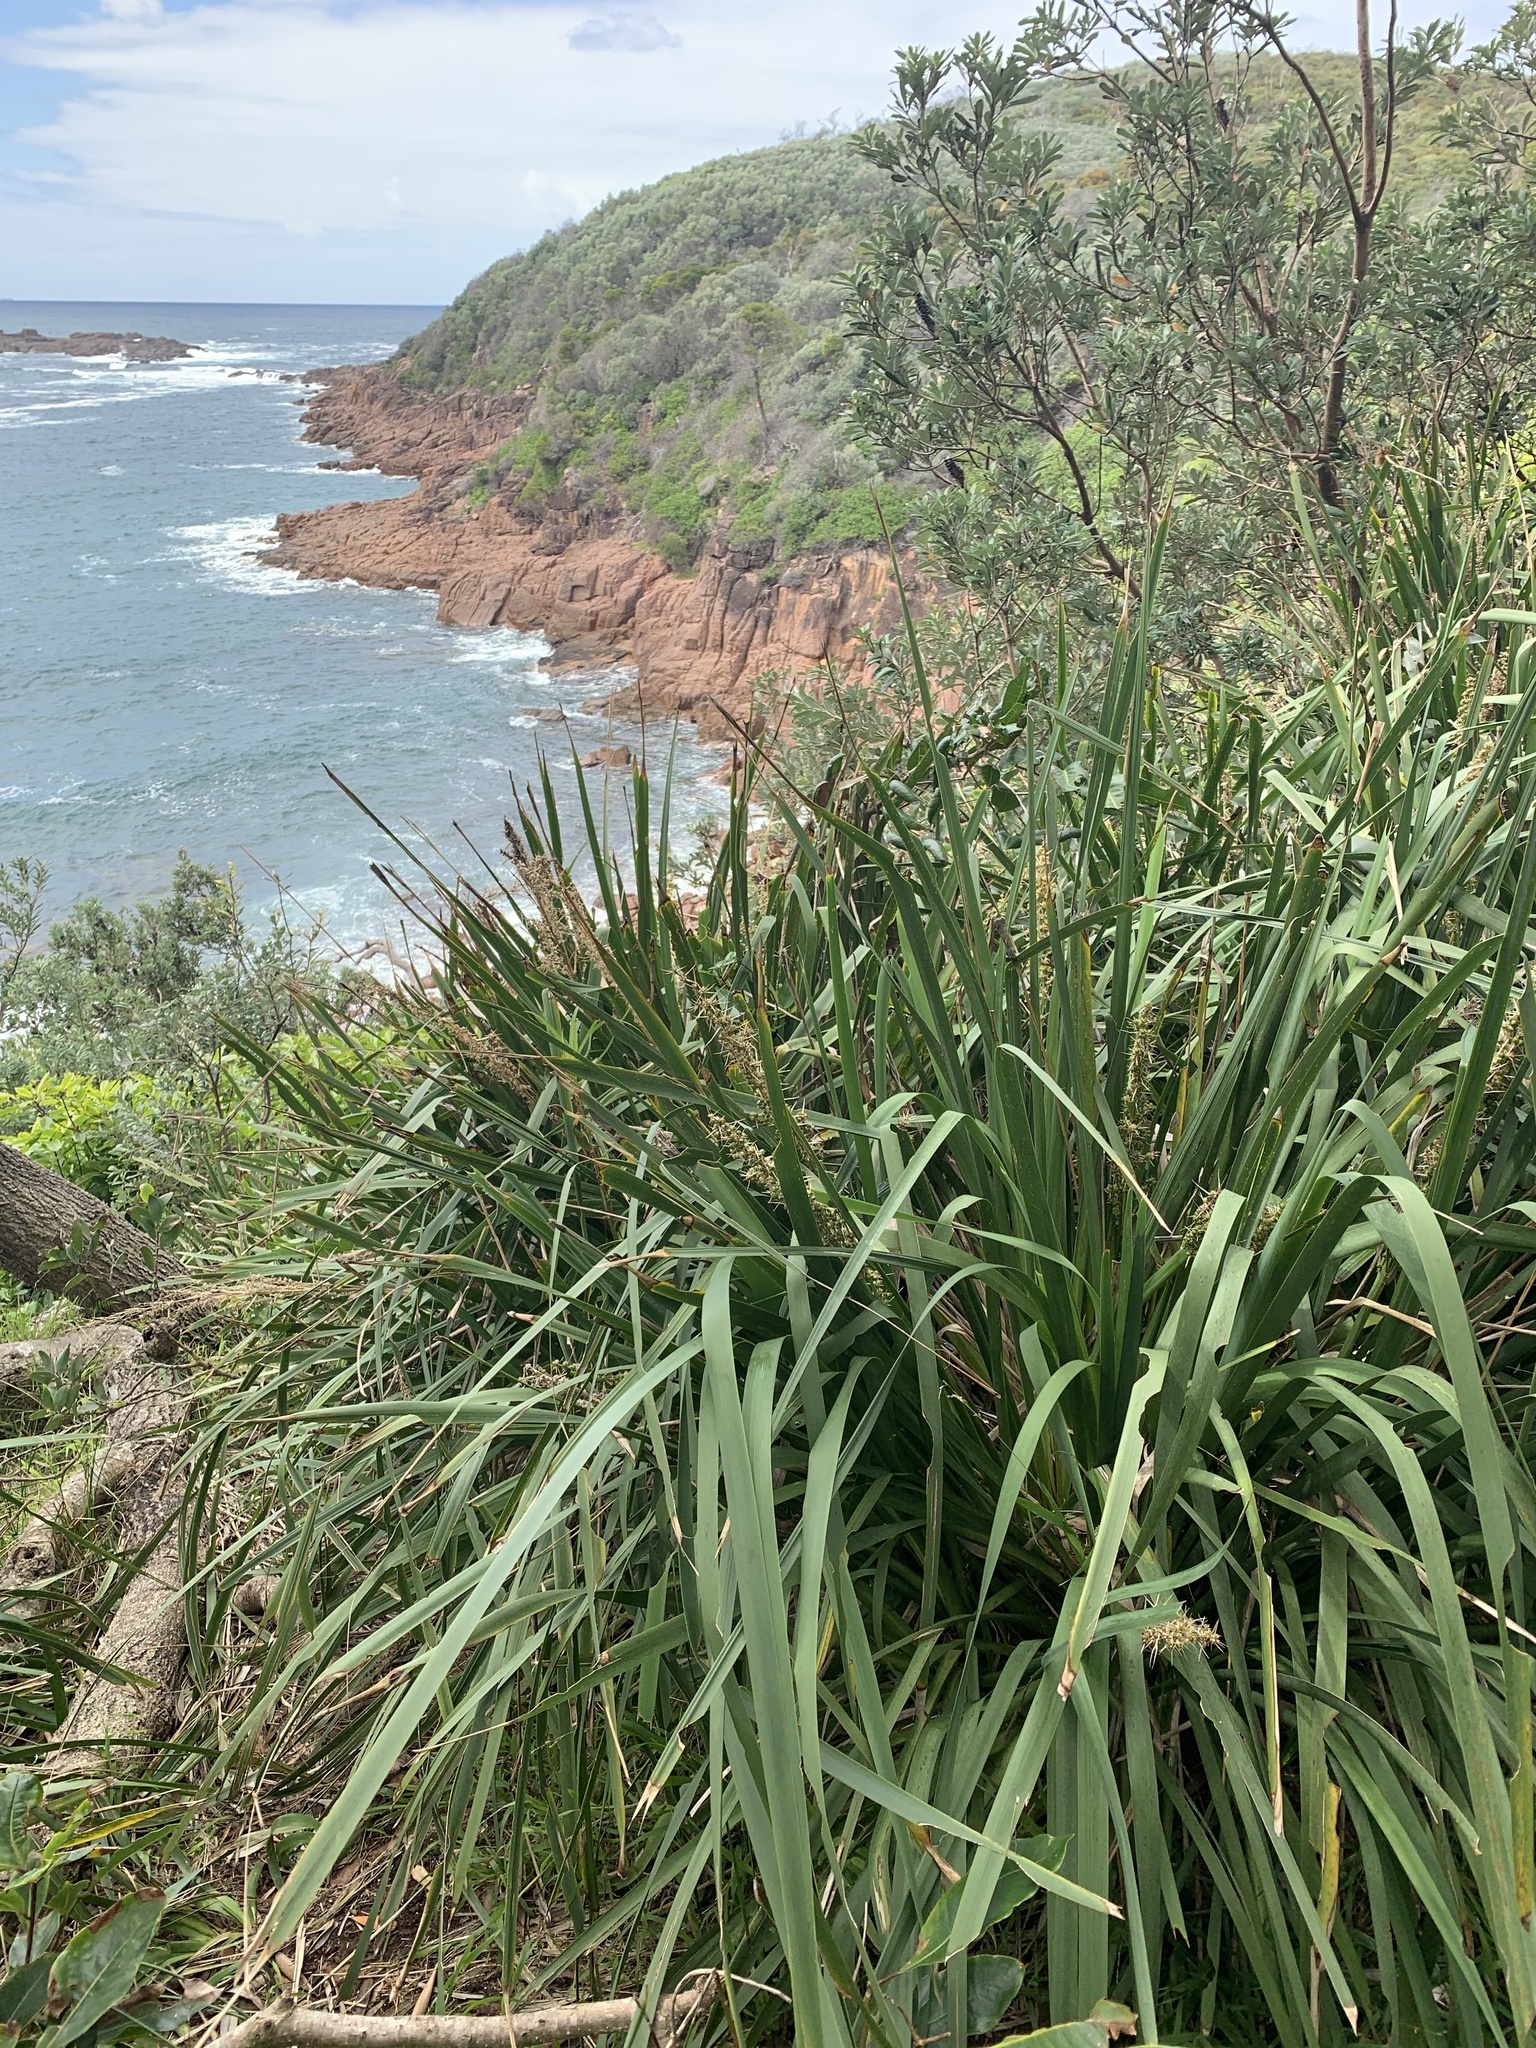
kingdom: Plantae
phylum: Tracheophyta
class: Liliopsida
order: Asparagales
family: Asparagaceae
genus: Lomandra
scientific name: Lomandra longifolia
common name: Longleaf mat-rush
